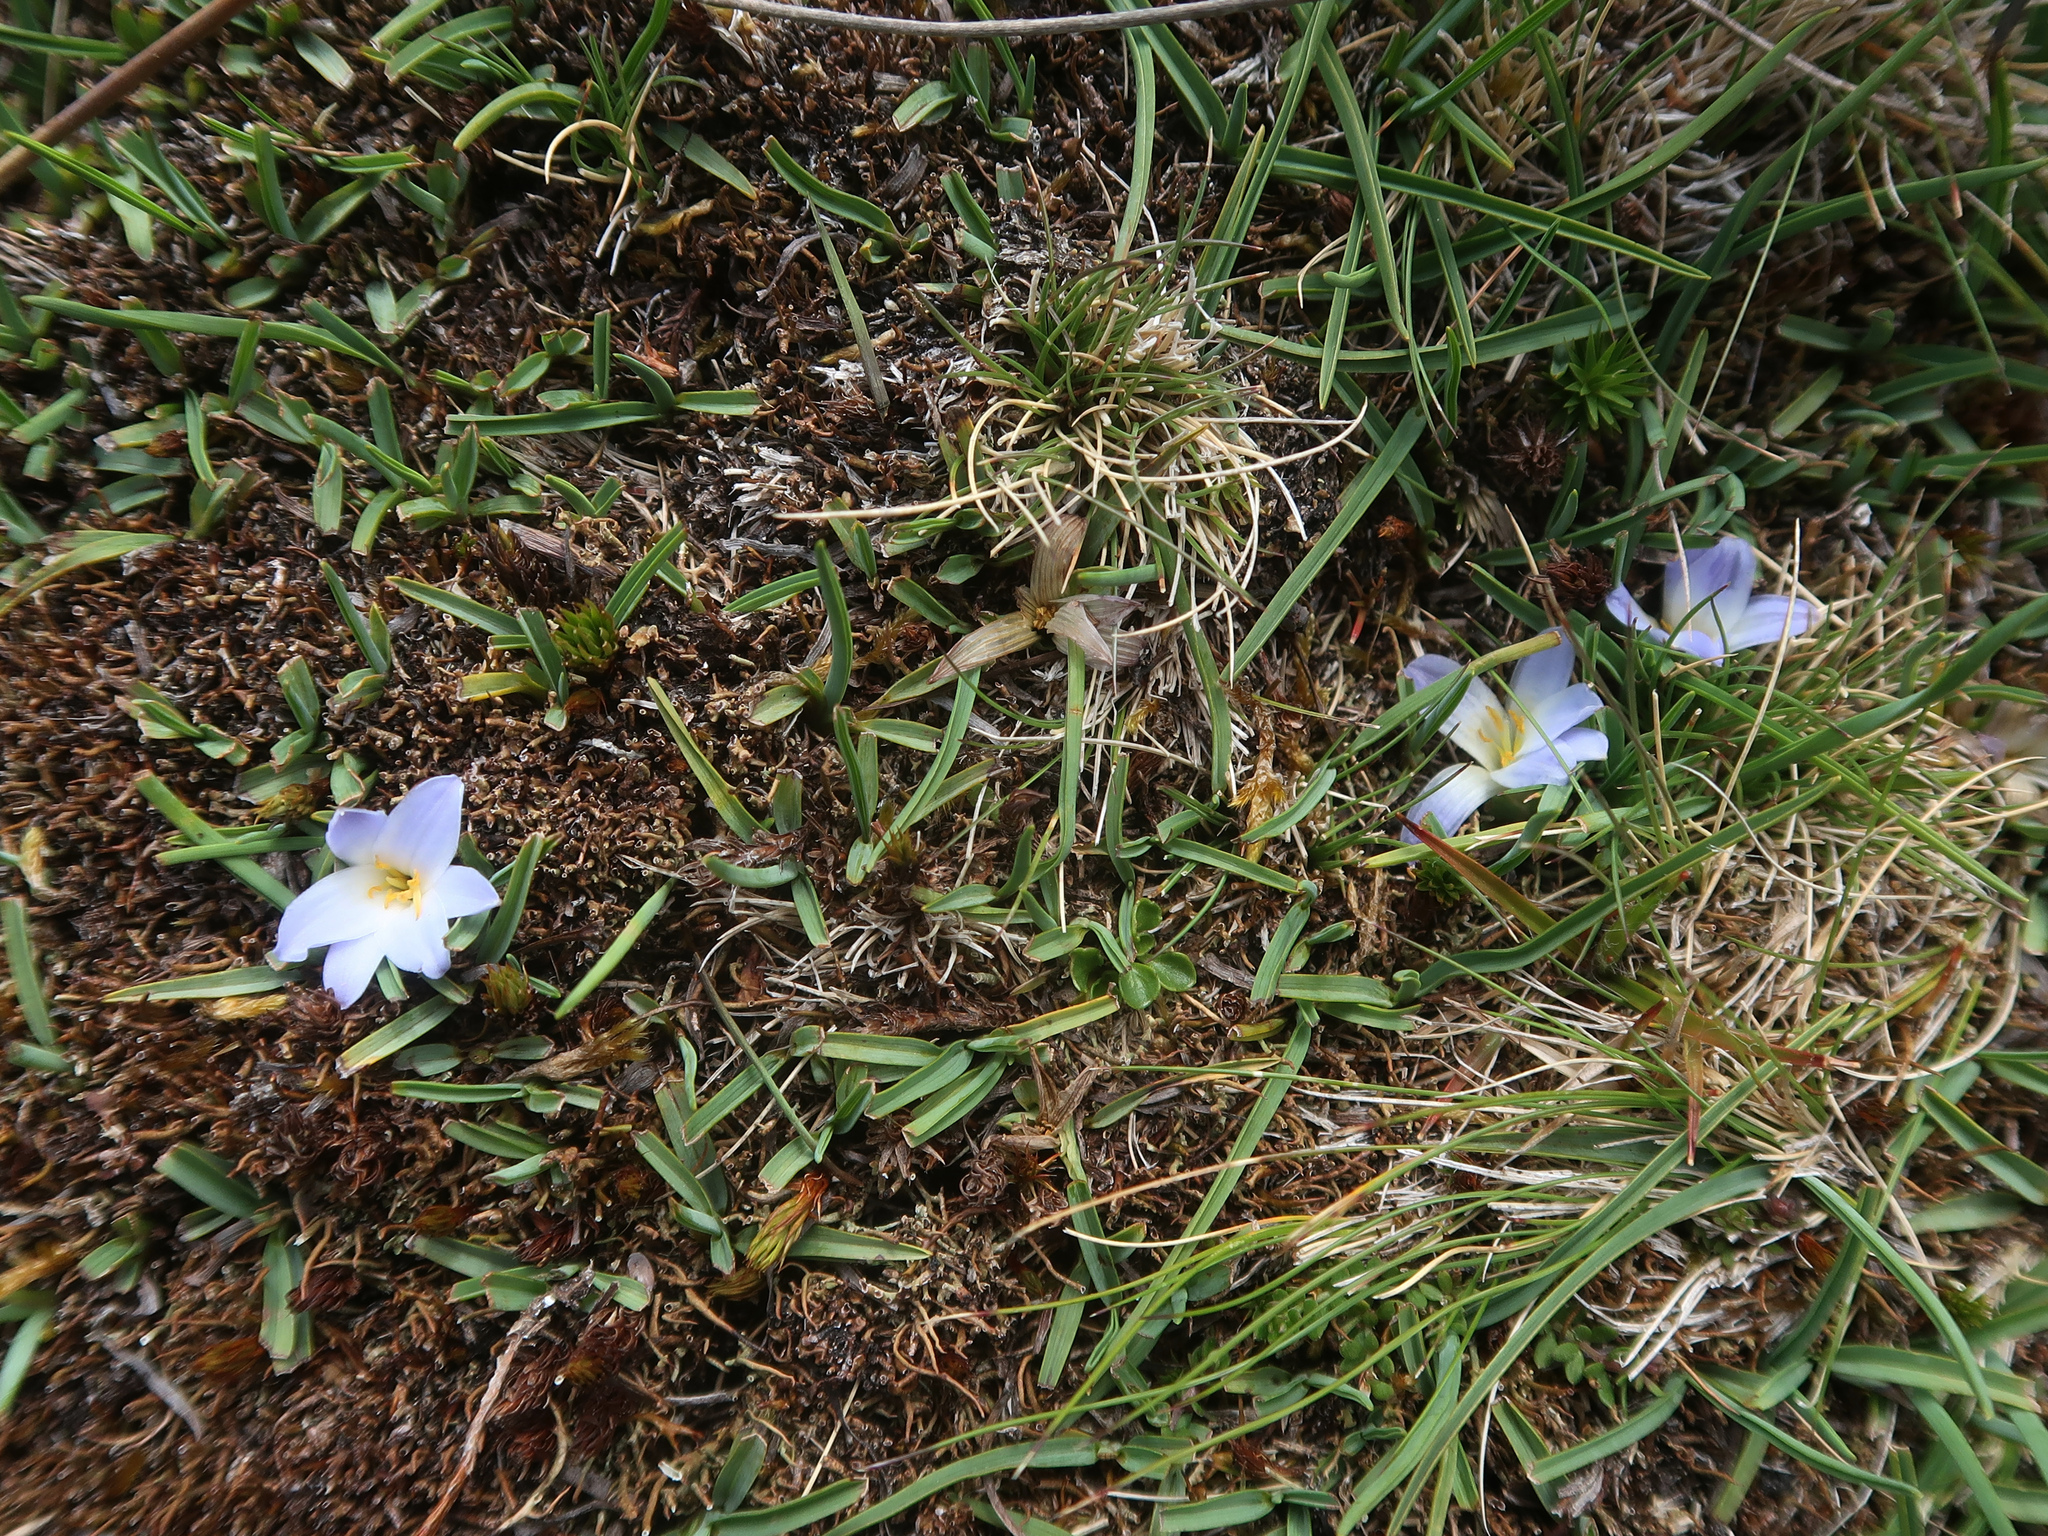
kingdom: Plantae
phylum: Tracheophyta
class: Liliopsida
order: Asparagales
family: Asphodelaceae
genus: Herpolirion
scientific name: Herpolirion novae-zelandiae
